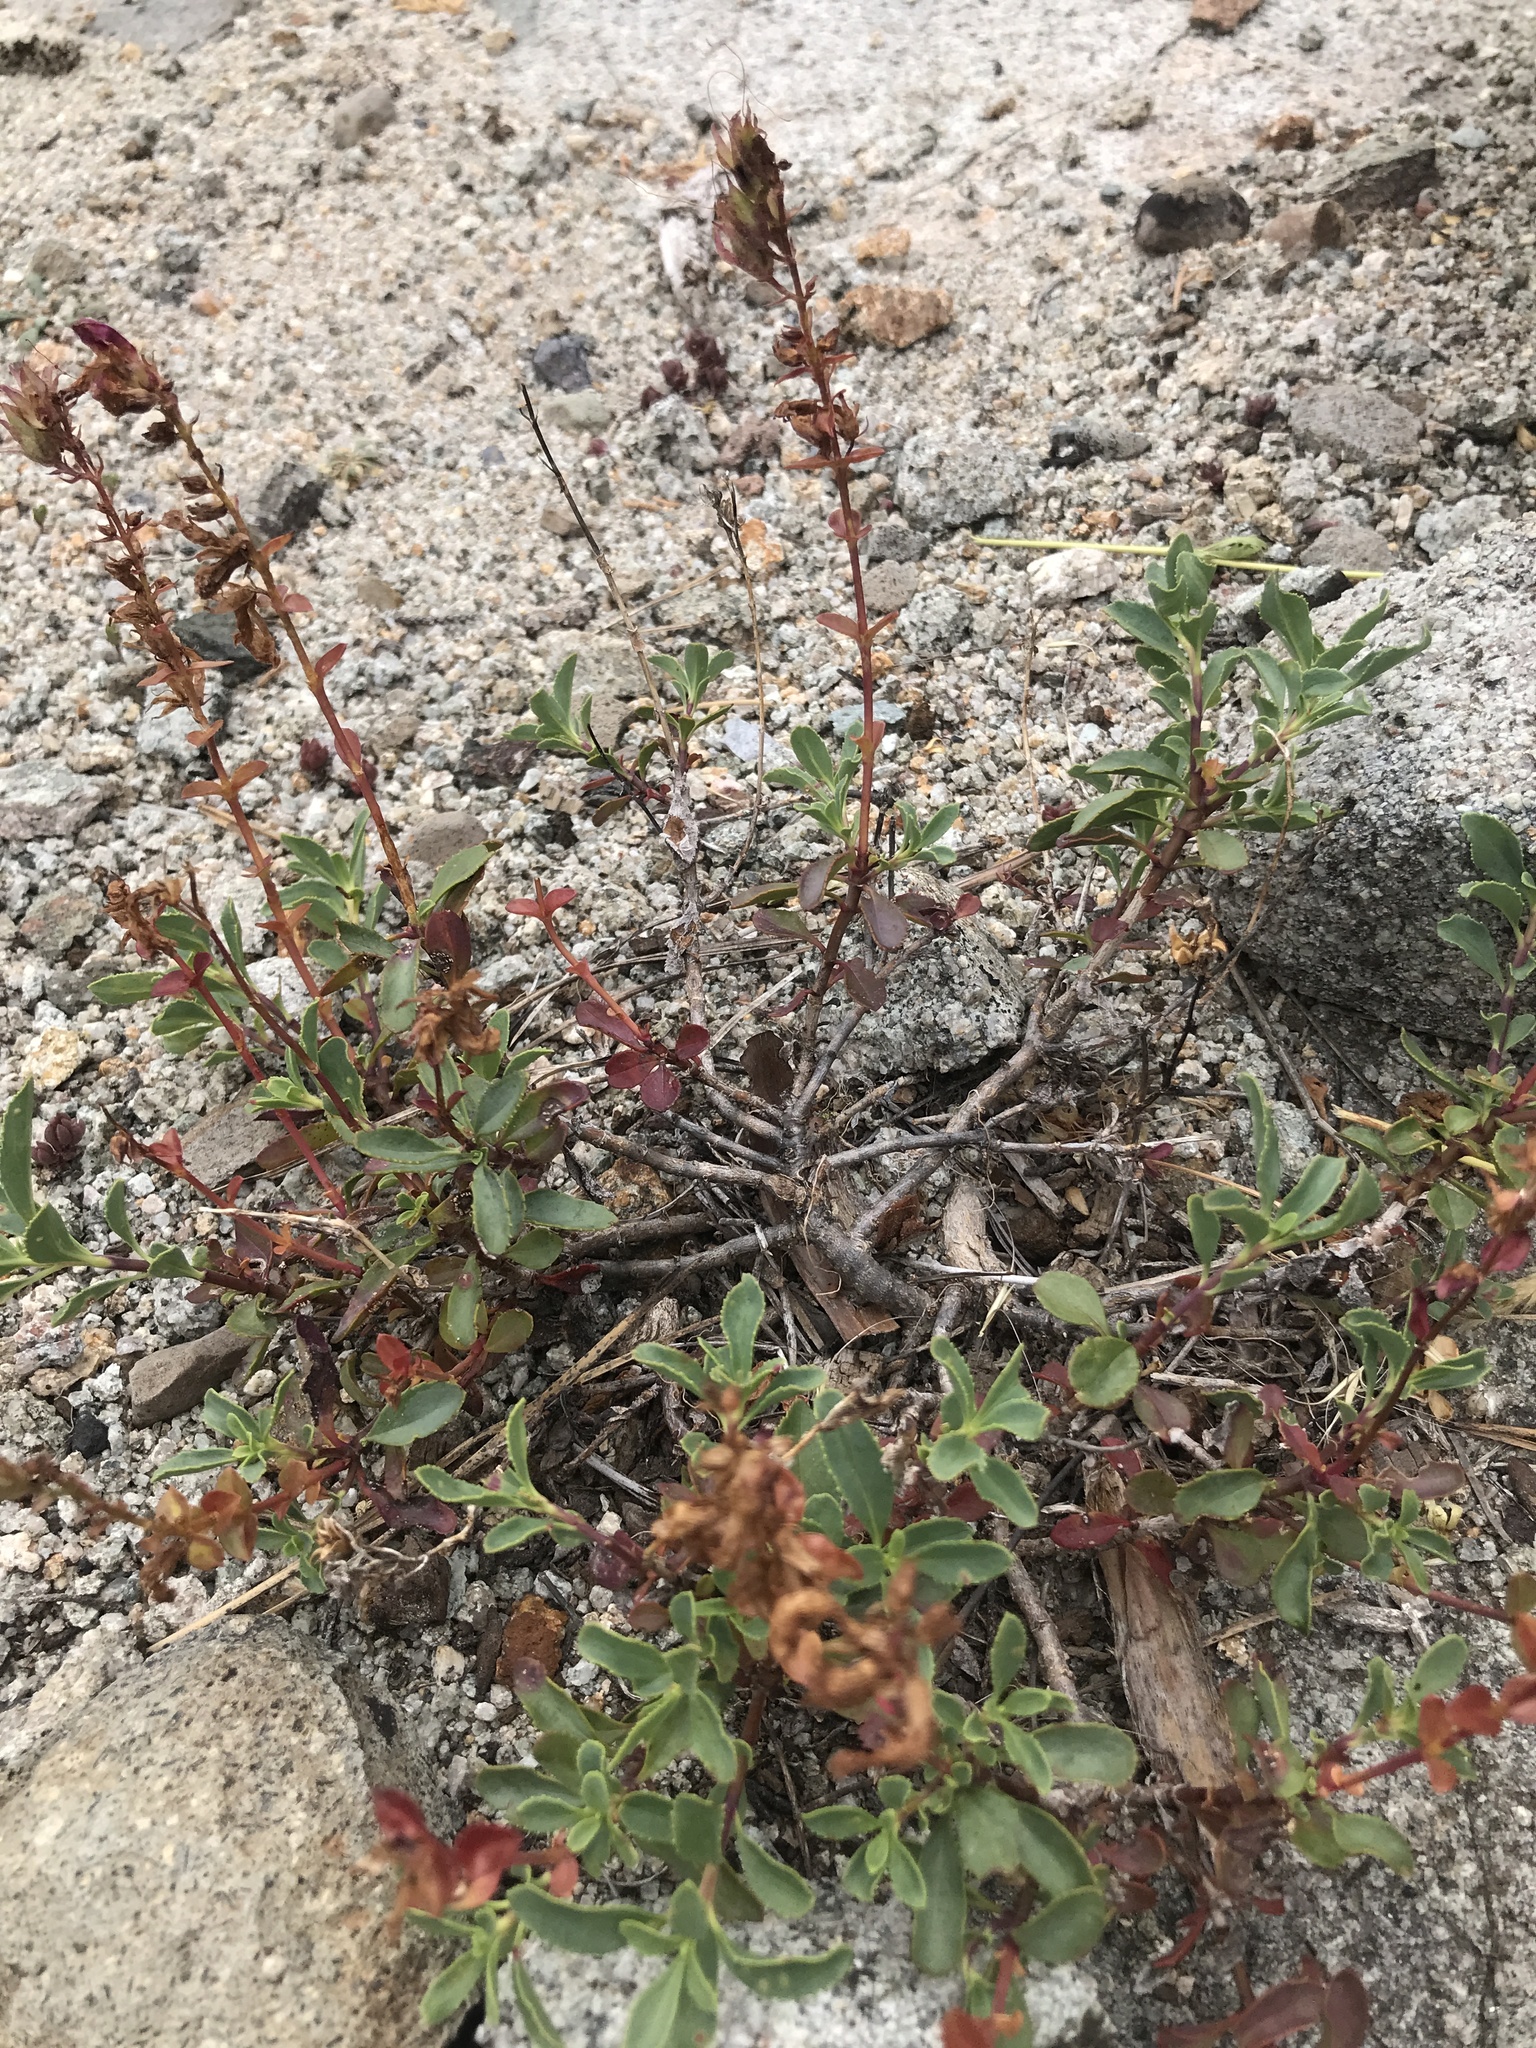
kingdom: Plantae
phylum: Tracheophyta
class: Magnoliopsida
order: Lamiales
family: Plantaginaceae
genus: Penstemon
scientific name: Penstemon newberryi
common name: Mountain-pride
